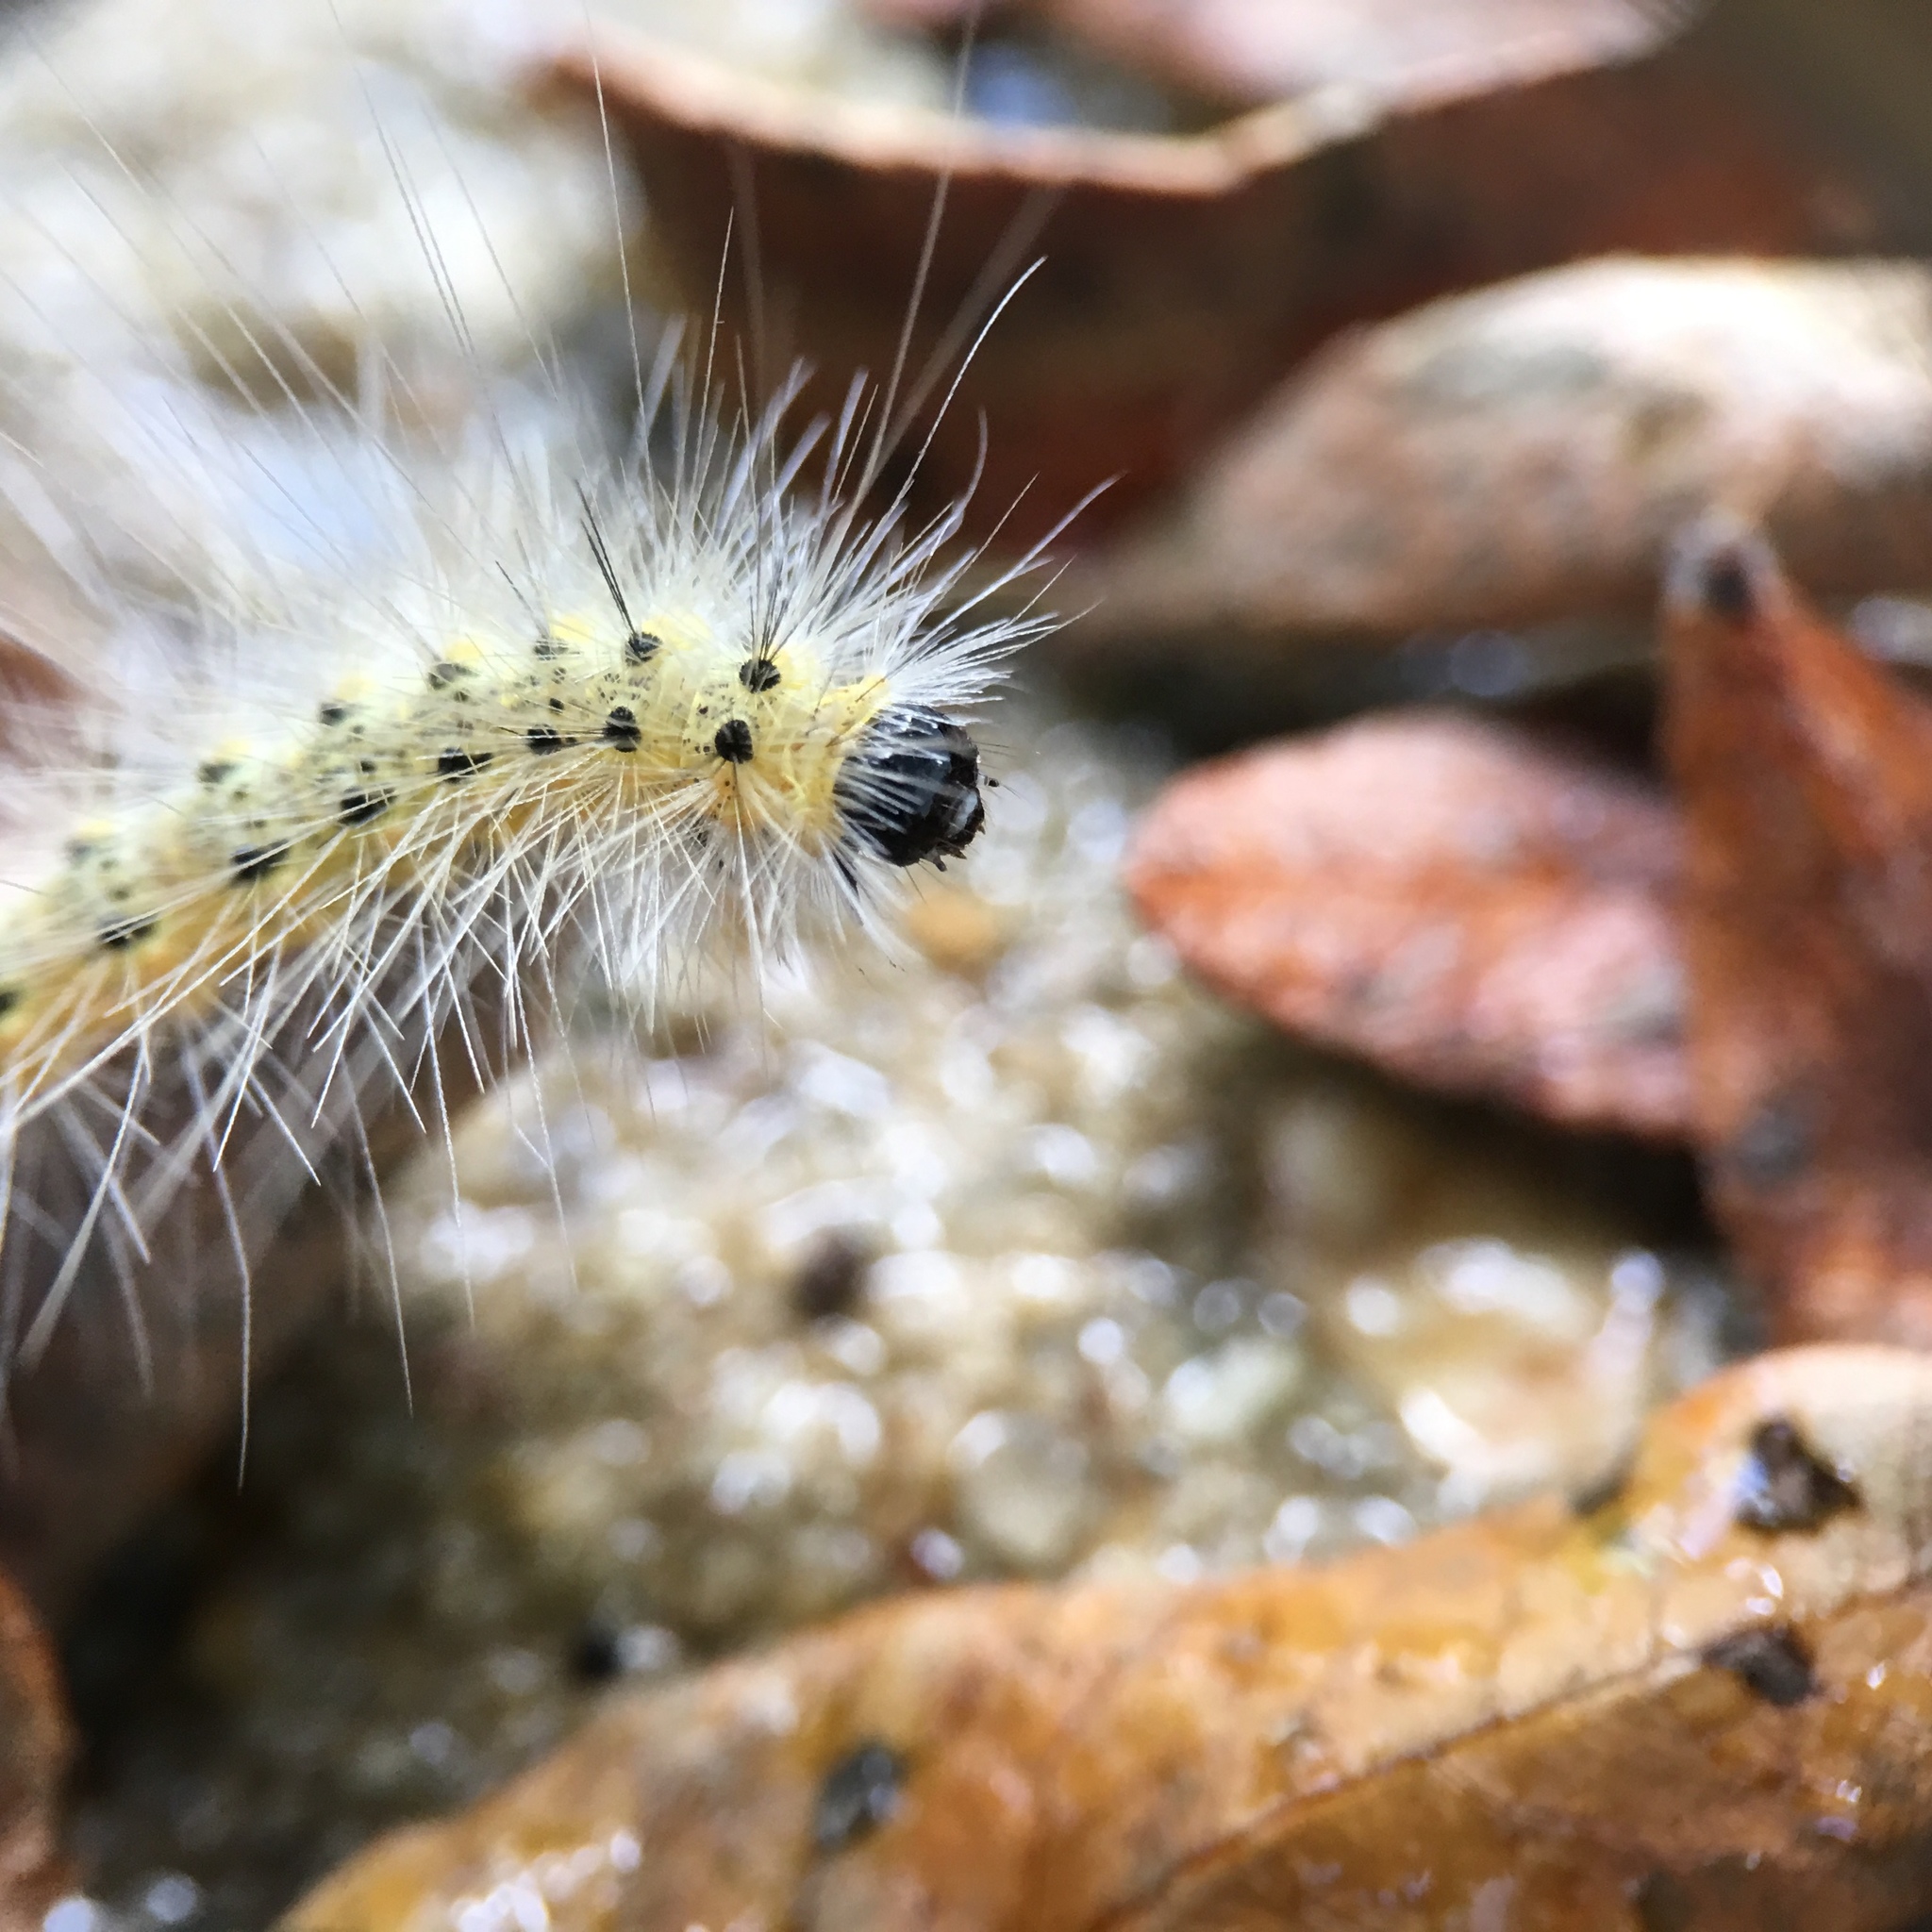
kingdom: Animalia
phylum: Arthropoda
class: Insecta
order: Lepidoptera
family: Erebidae
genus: Hyphantria
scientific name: Hyphantria cunea
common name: American white moth
